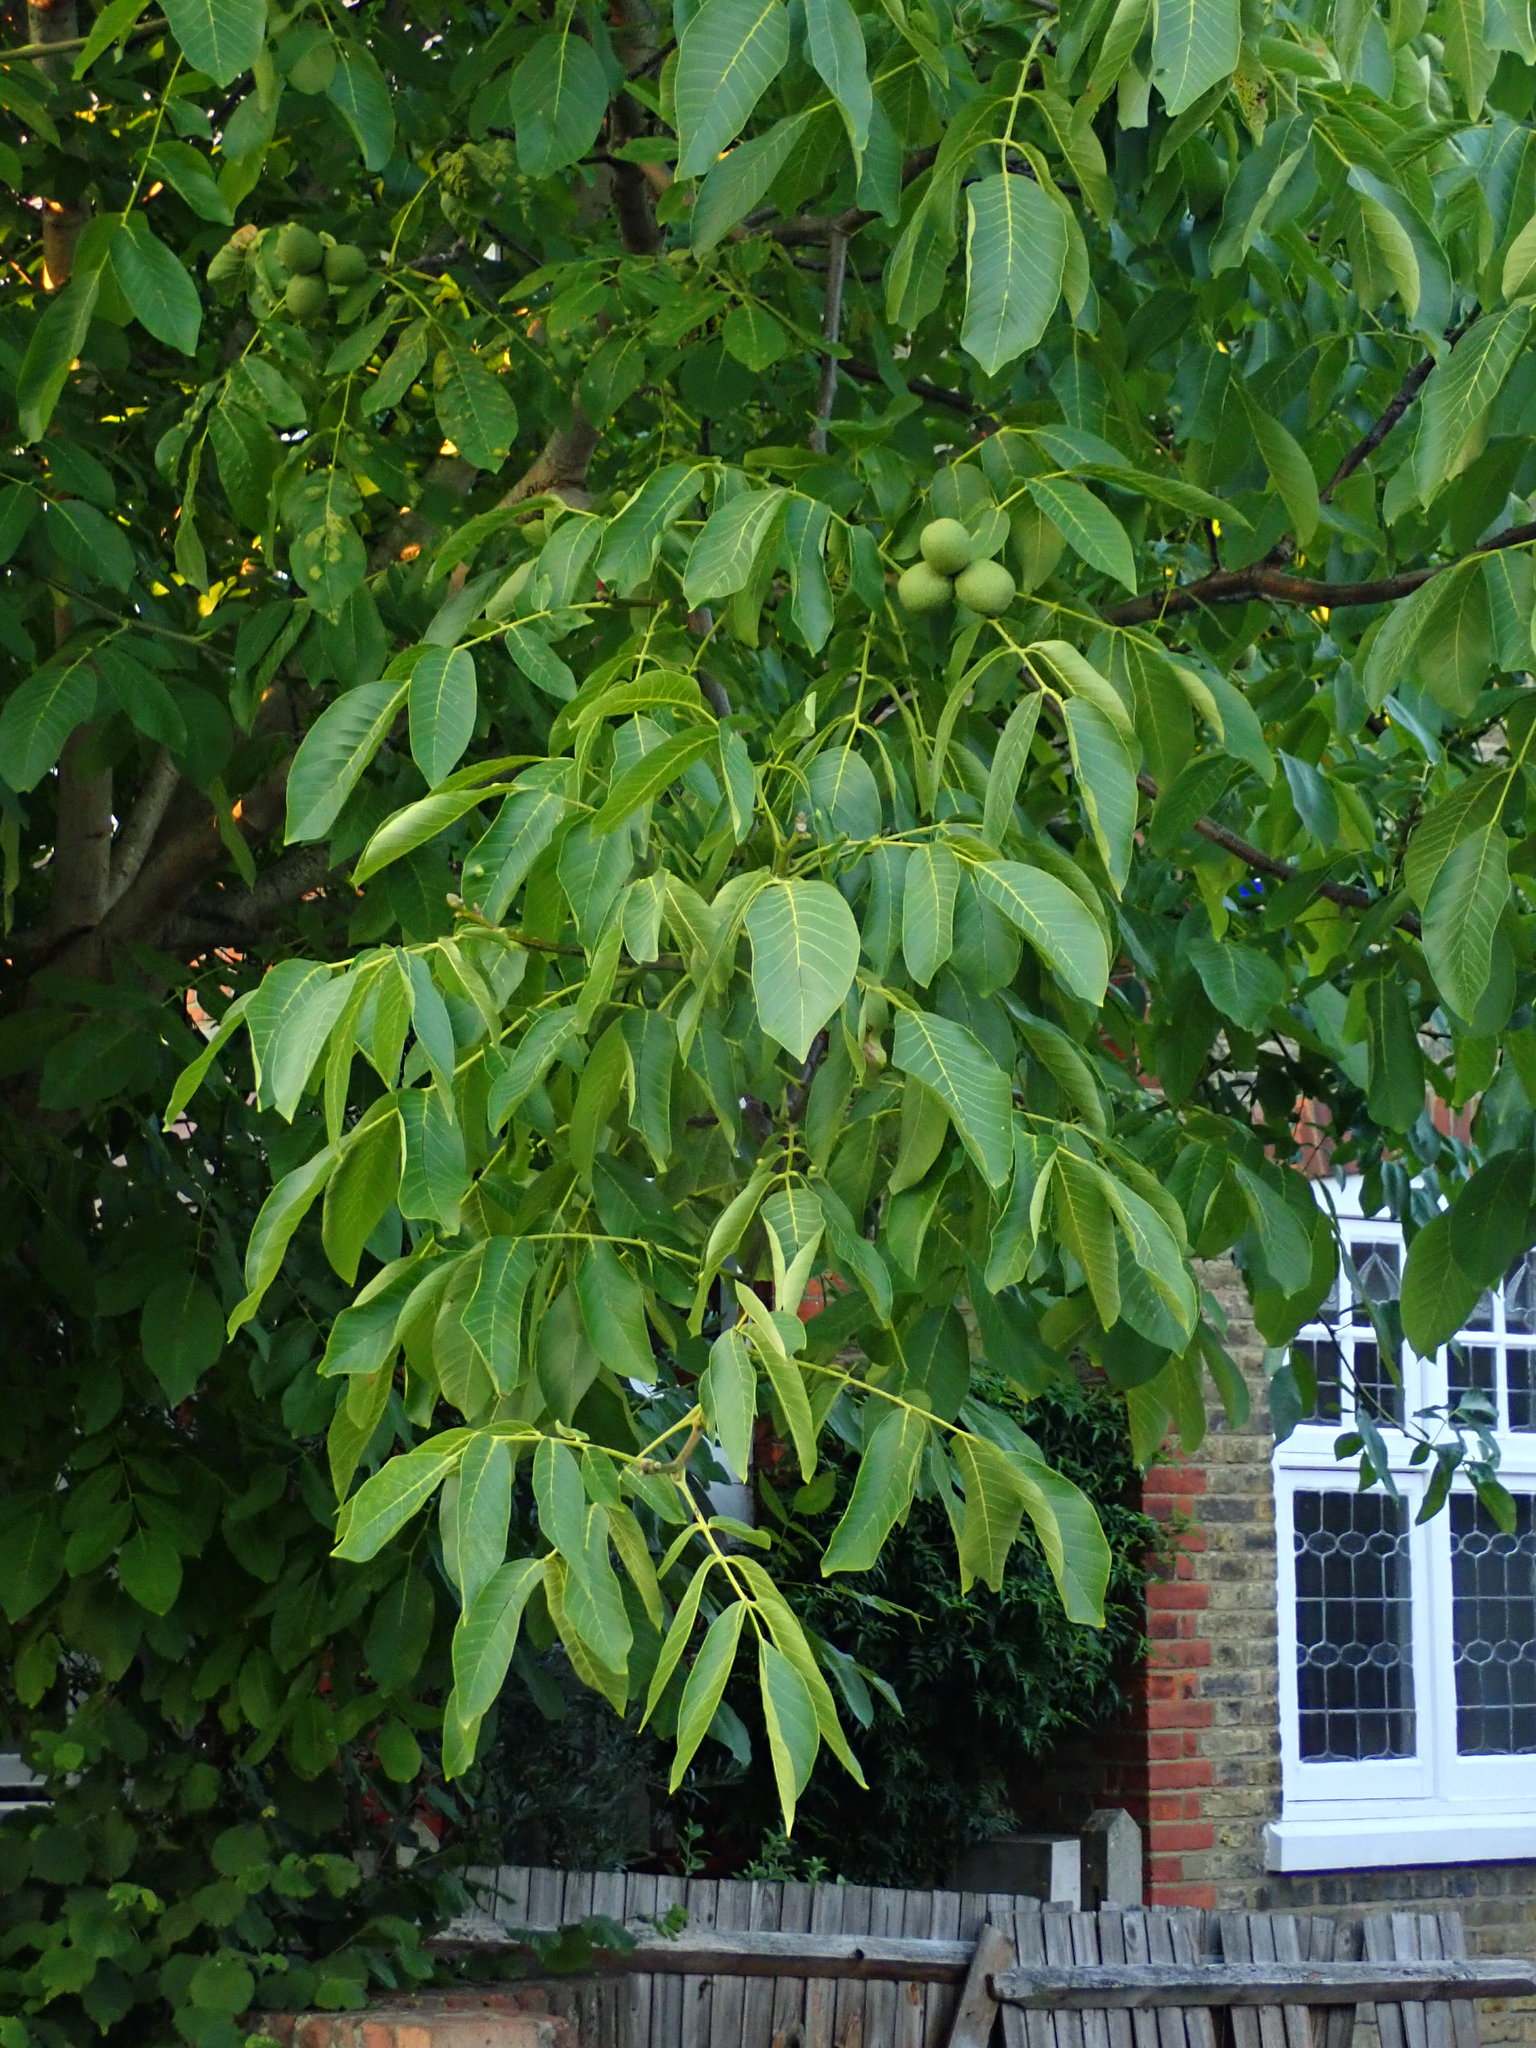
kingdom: Plantae
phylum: Tracheophyta
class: Magnoliopsida
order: Fagales
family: Juglandaceae
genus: Juglans
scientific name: Juglans regia
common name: Walnut
